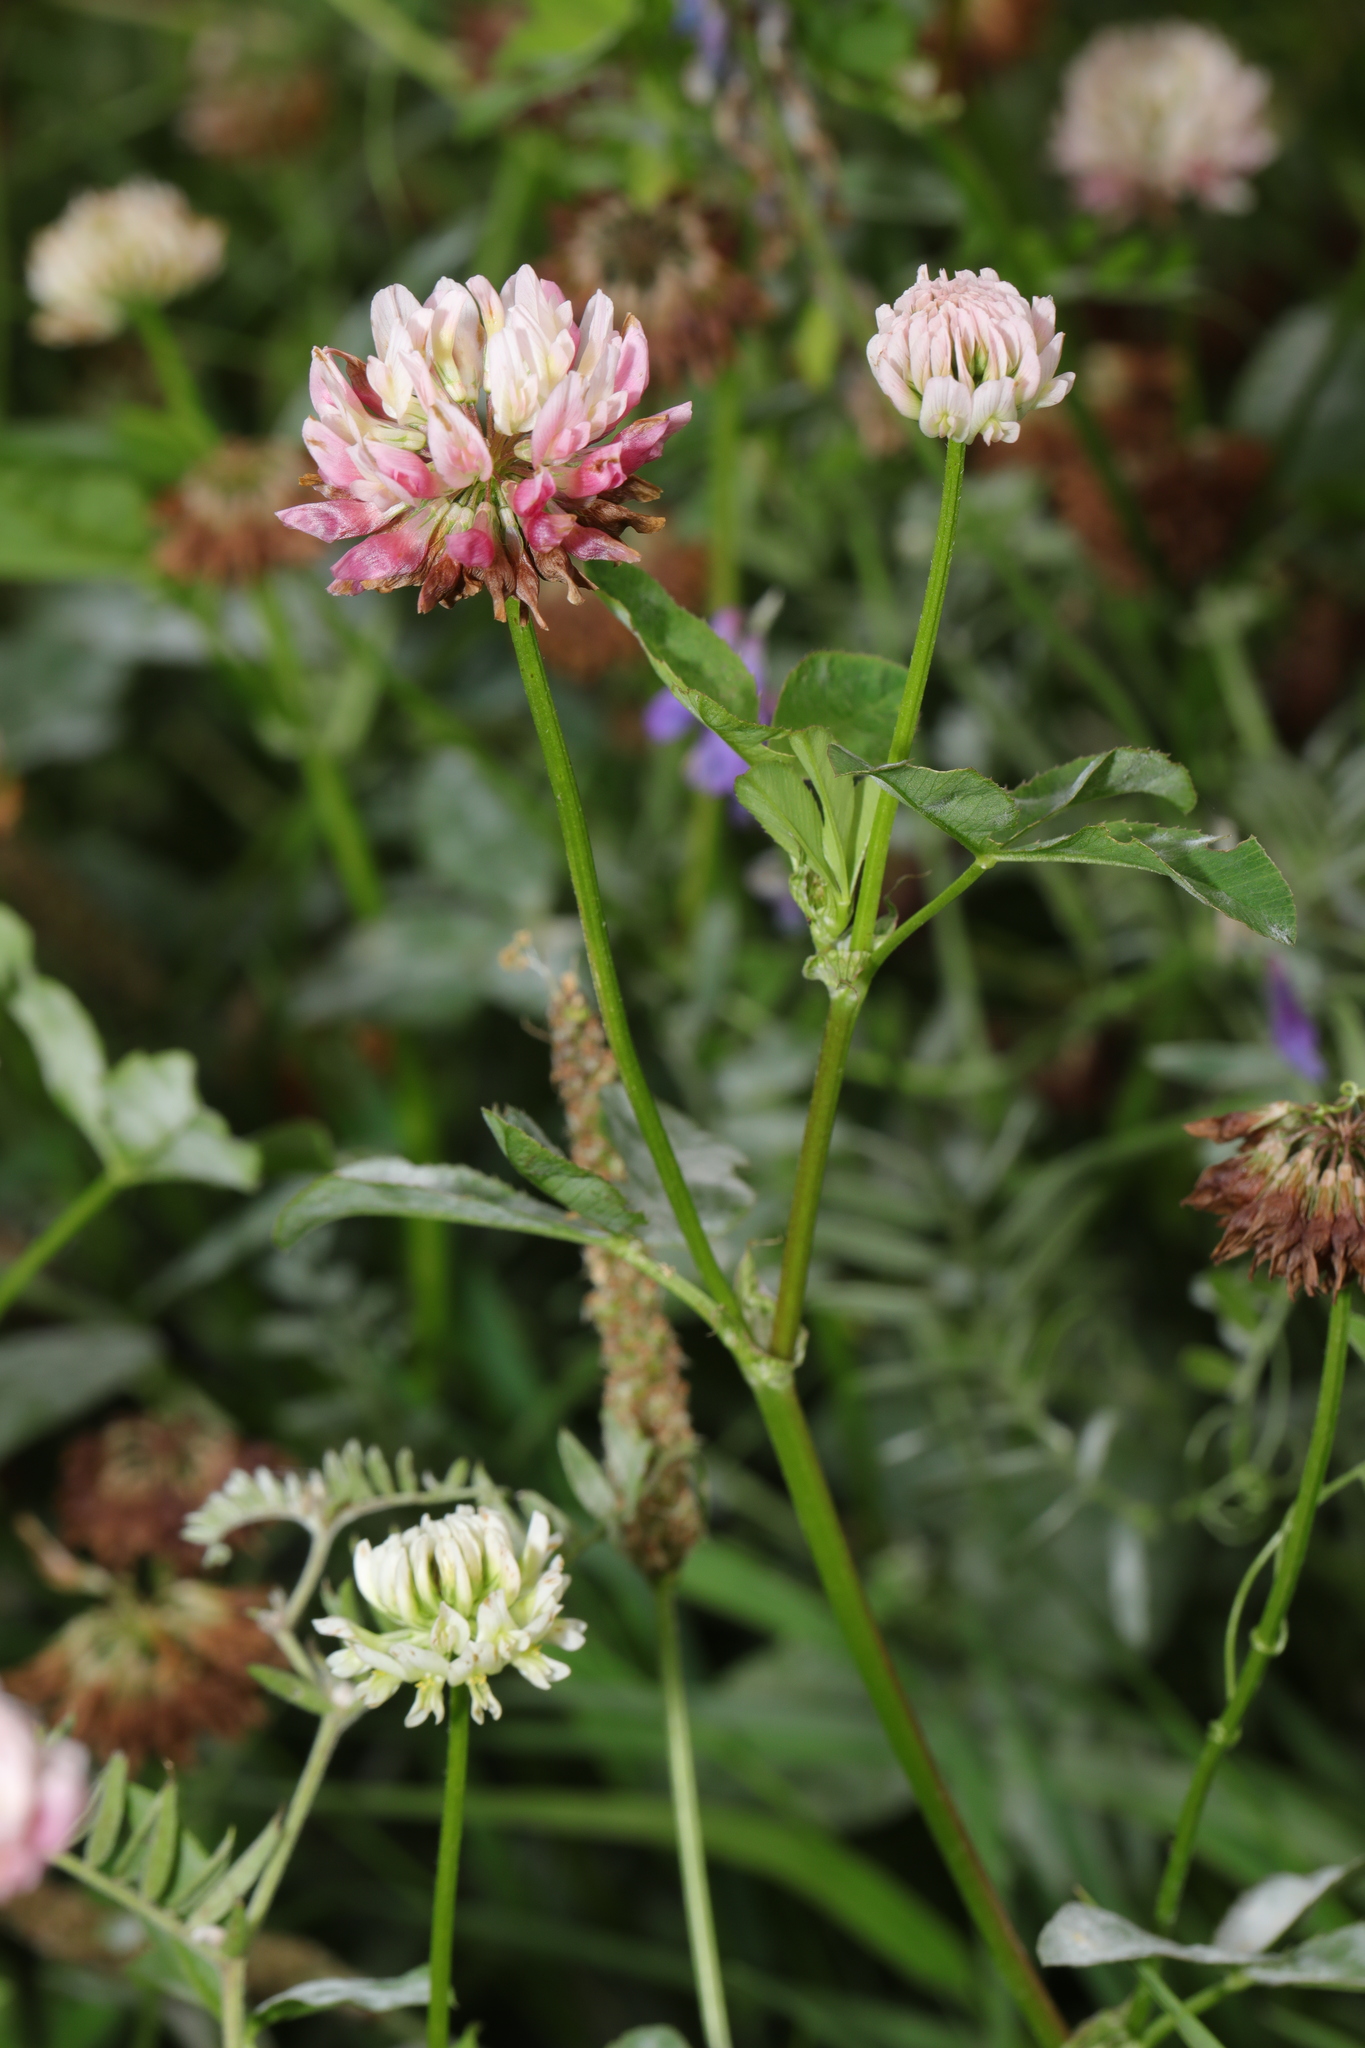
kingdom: Plantae
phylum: Tracheophyta
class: Magnoliopsida
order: Fabales
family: Fabaceae
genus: Trifolium
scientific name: Trifolium hybridum
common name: Alsike clover
